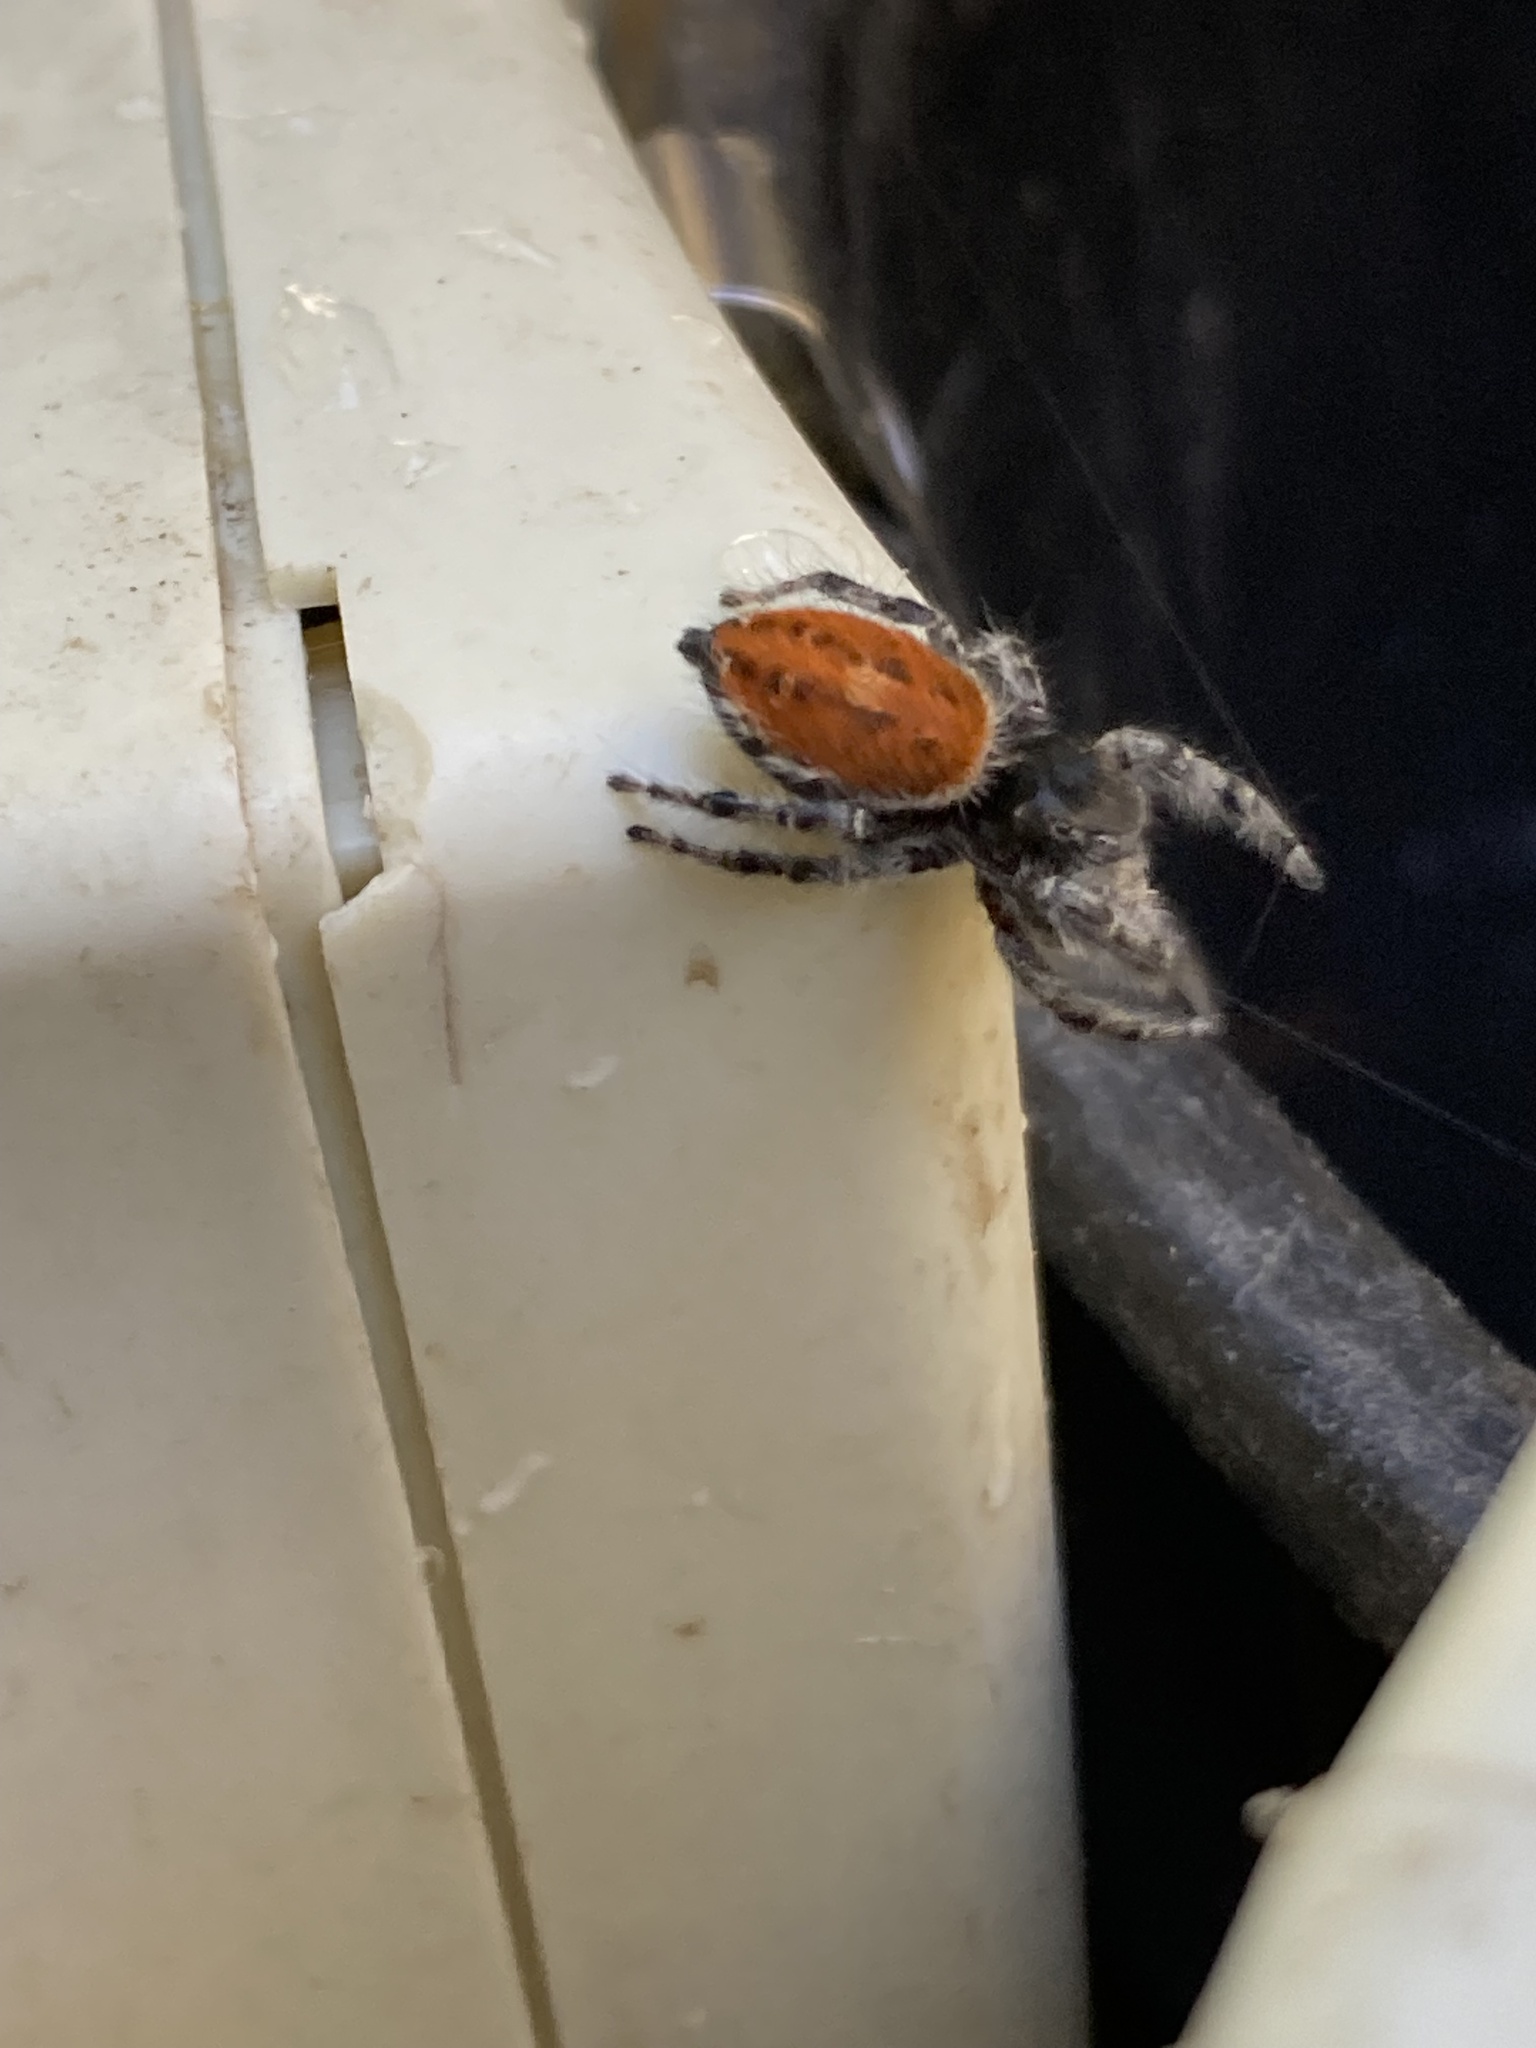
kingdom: Animalia
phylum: Arthropoda
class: Arachnida
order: Araneae
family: Salticidae
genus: Phidippus
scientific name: Phidippus kastoni
